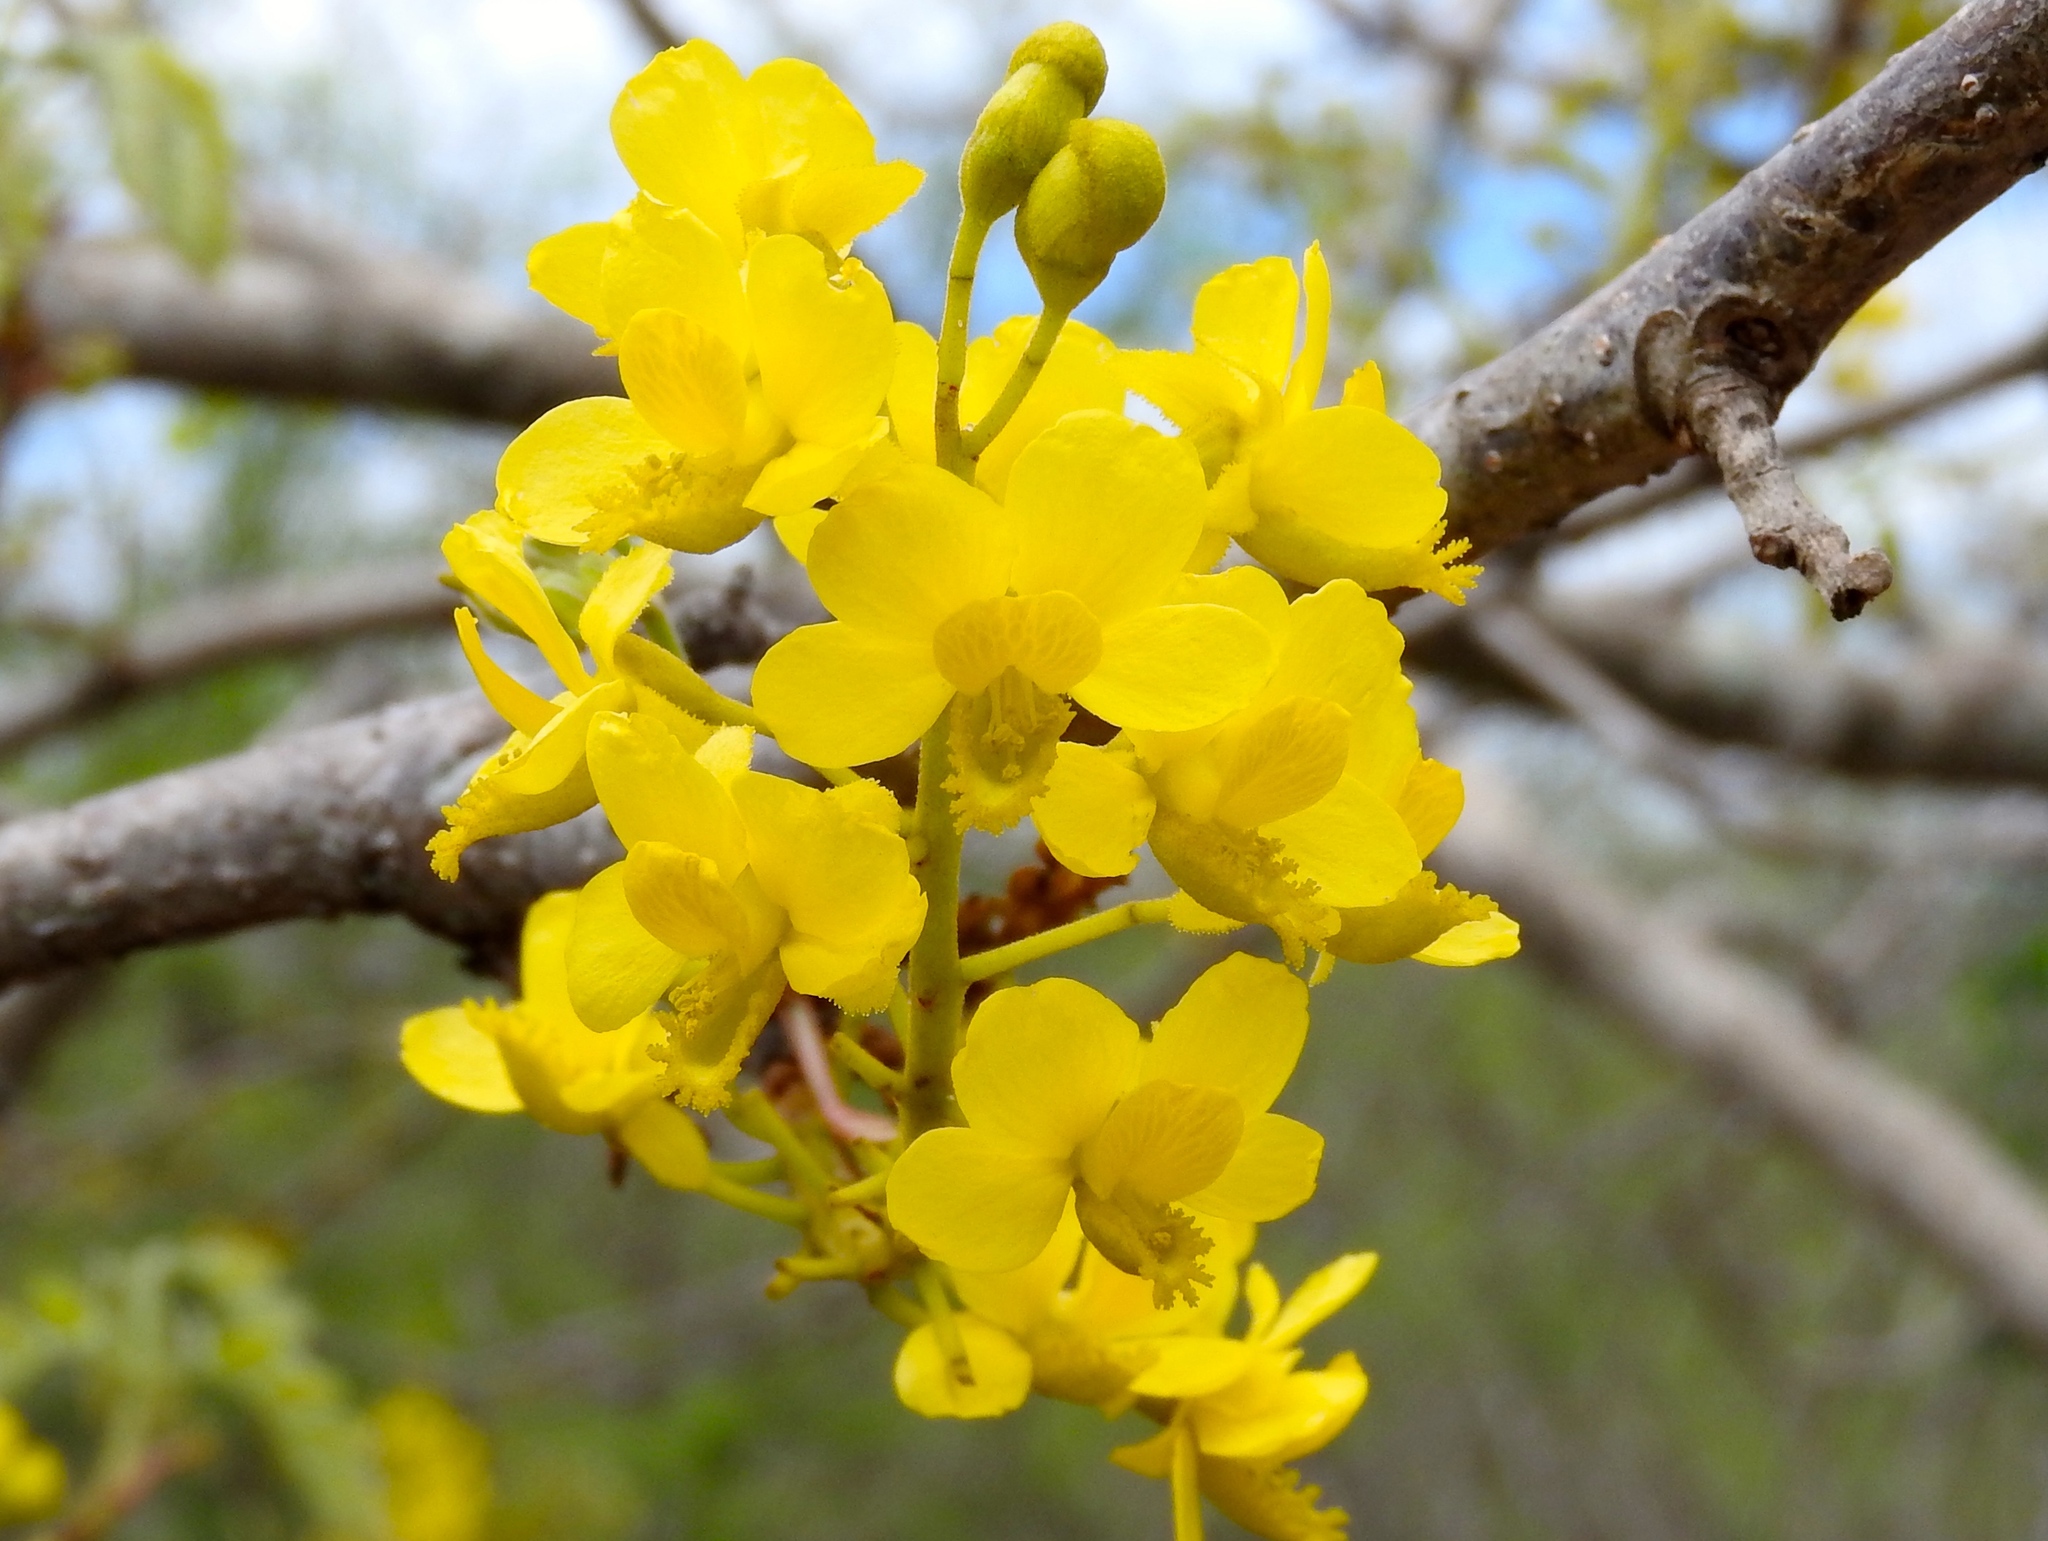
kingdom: Plantae
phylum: Tracheophyta
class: Magnoliopsida
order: Fabales
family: Fabaceae
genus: Coulteria
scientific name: Coulteria platyloba
